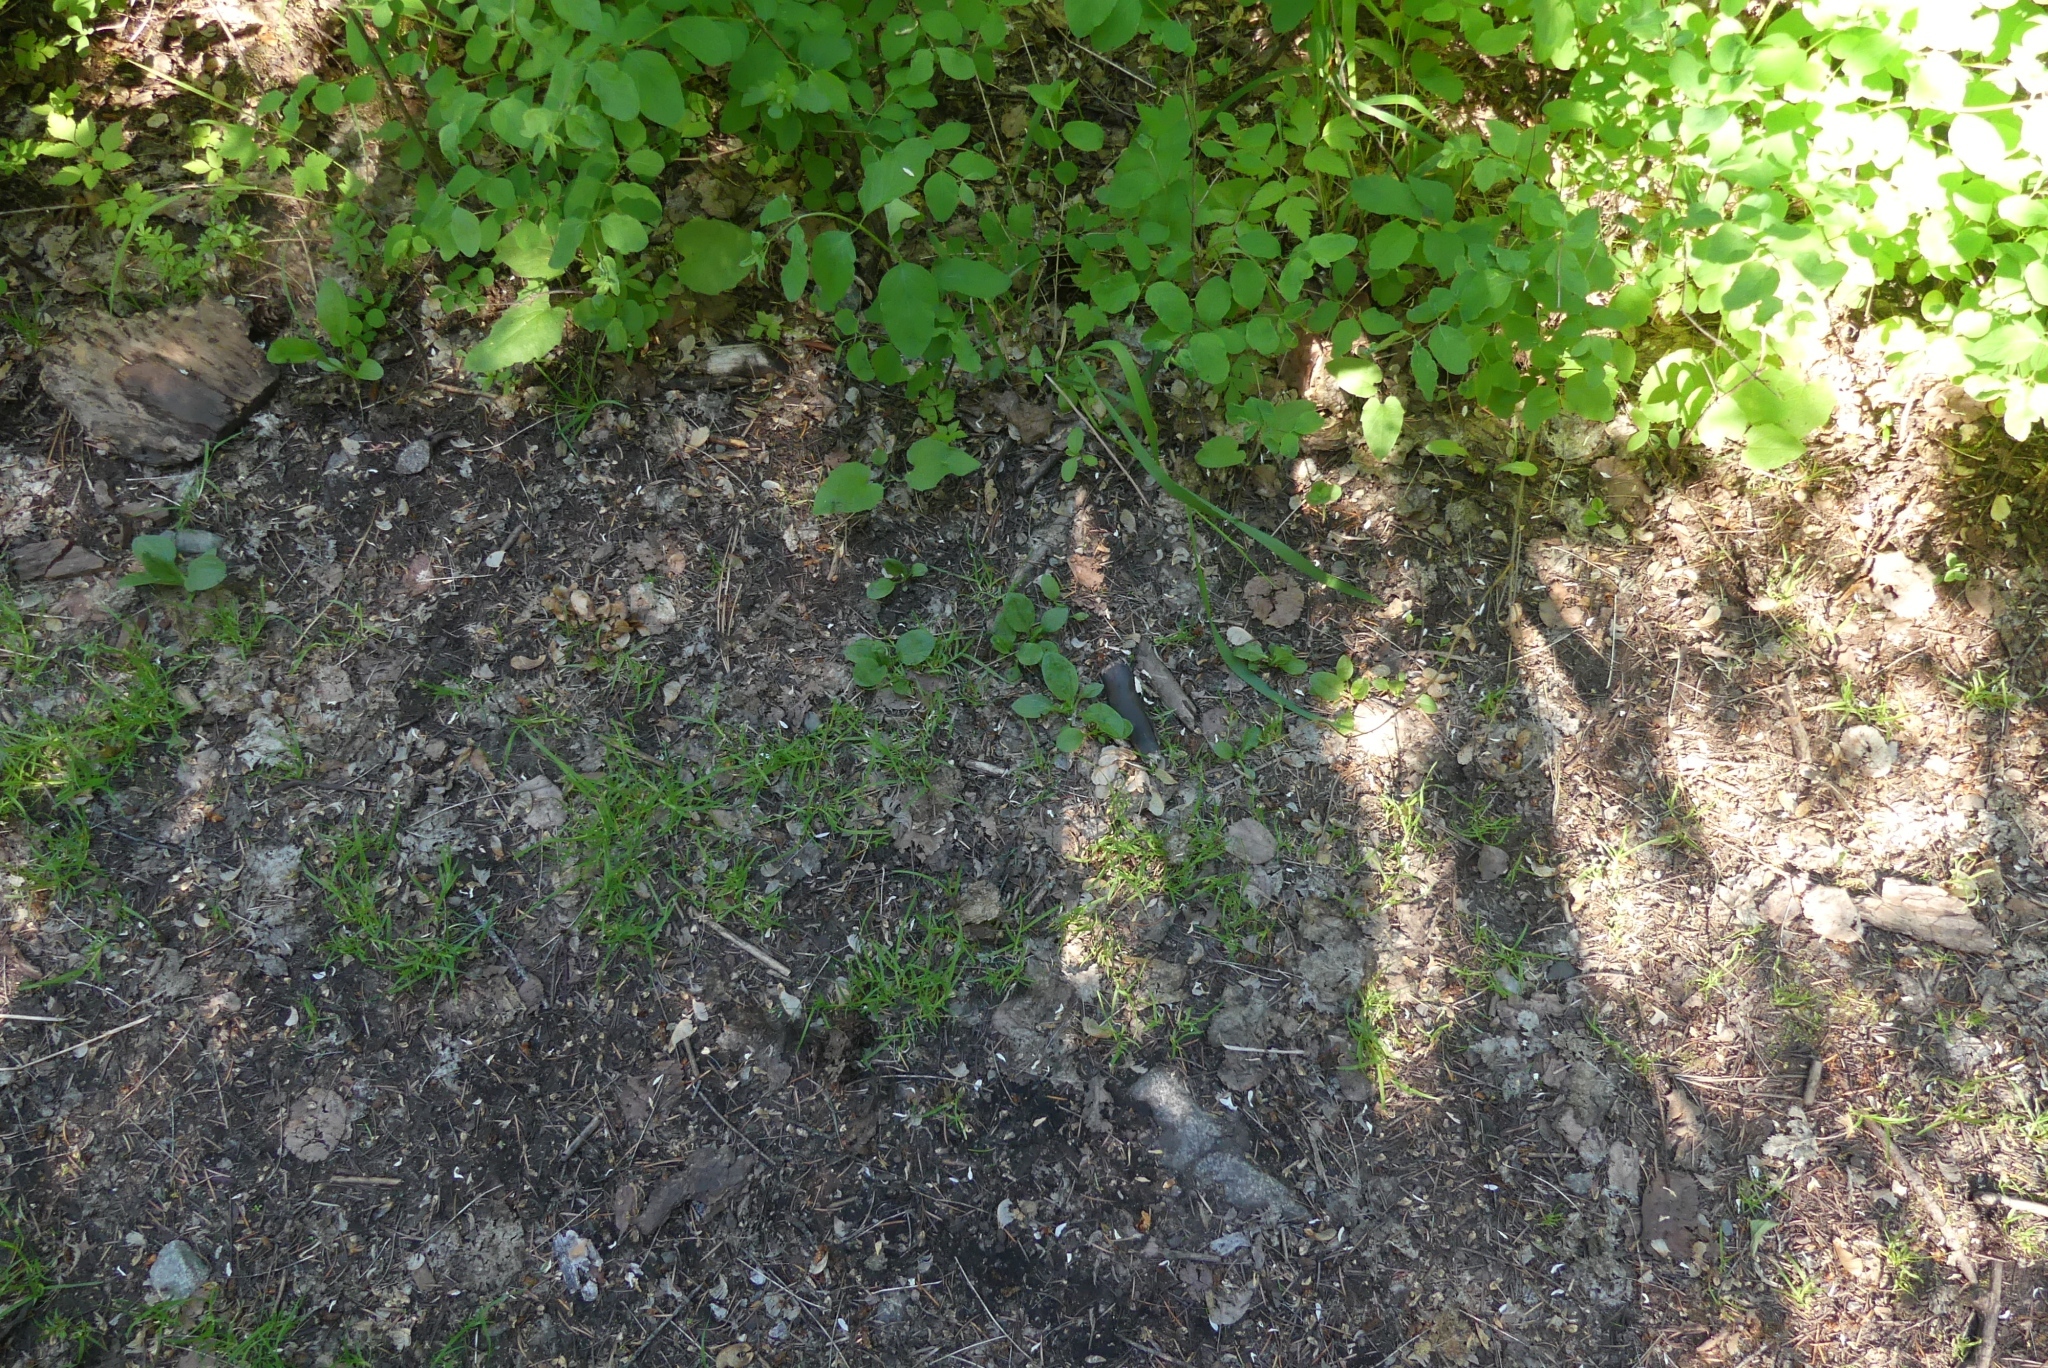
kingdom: Plantae
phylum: Tracheophyta
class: Magnoliopsida
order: Lamiales
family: Plantaginaceae
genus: Plantago
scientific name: Plantago major
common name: Common plantain
